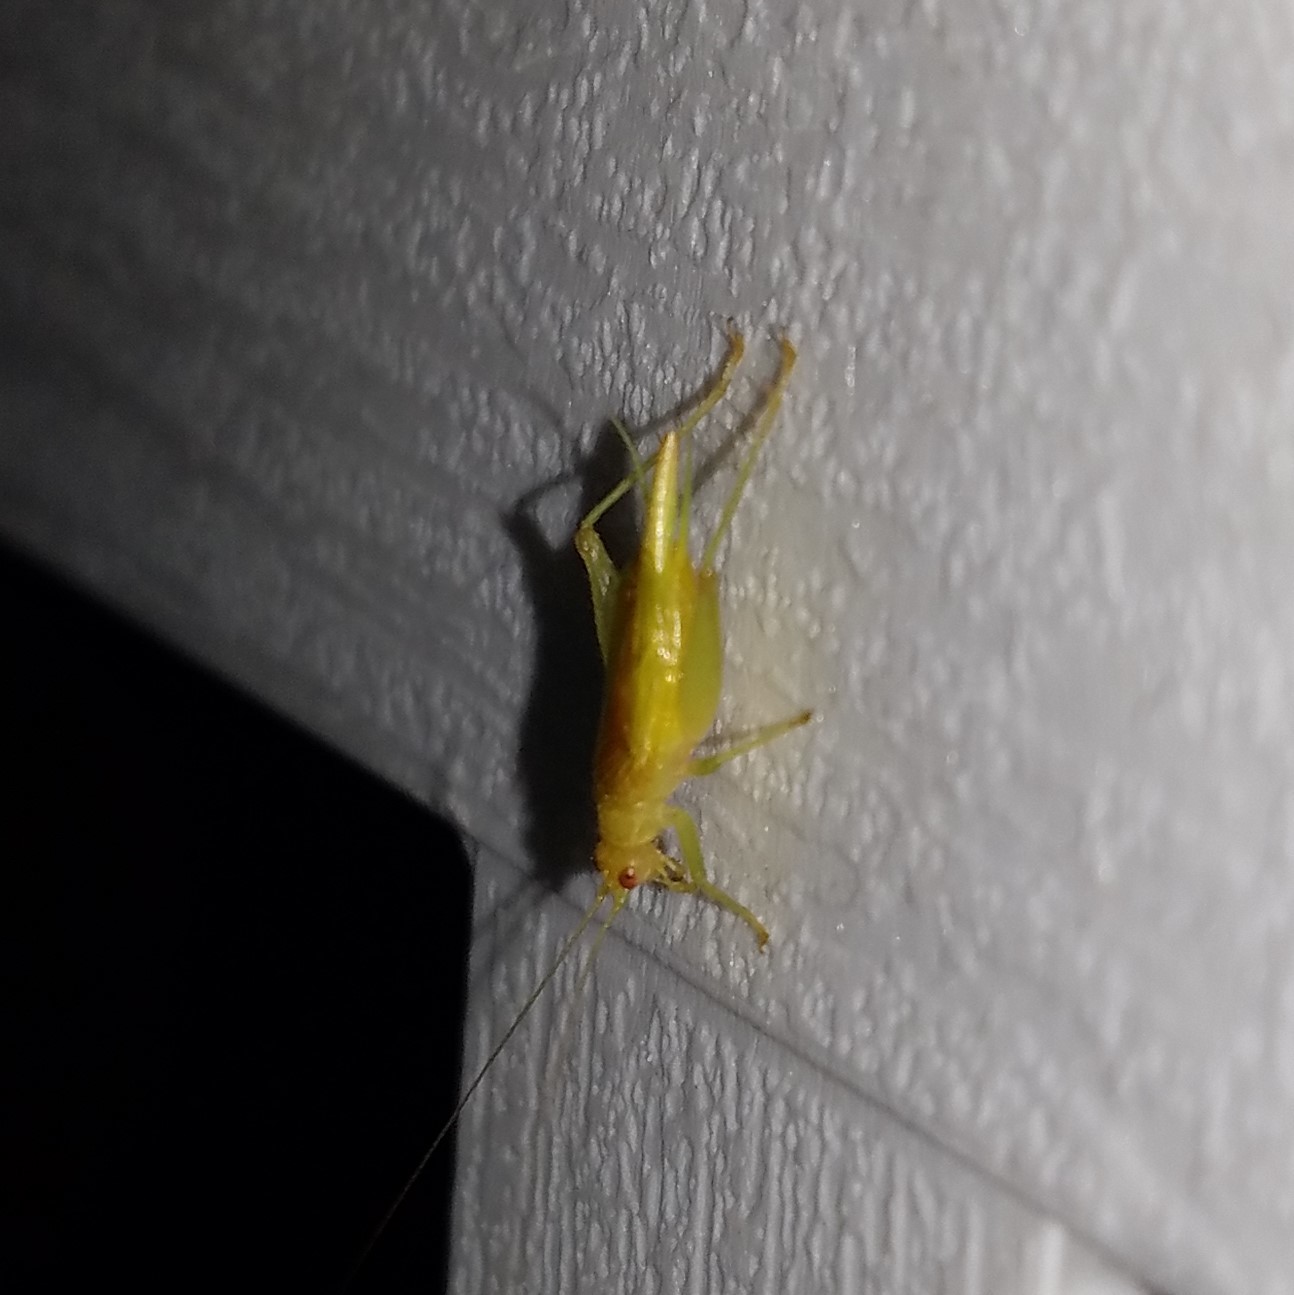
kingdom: Animalia
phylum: Arthropoda
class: Insecta
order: Orthoptera
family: Trigonidiidae
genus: Cyrtoxipha
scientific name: Cyrtoxipha columbiana
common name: Columbian trig
